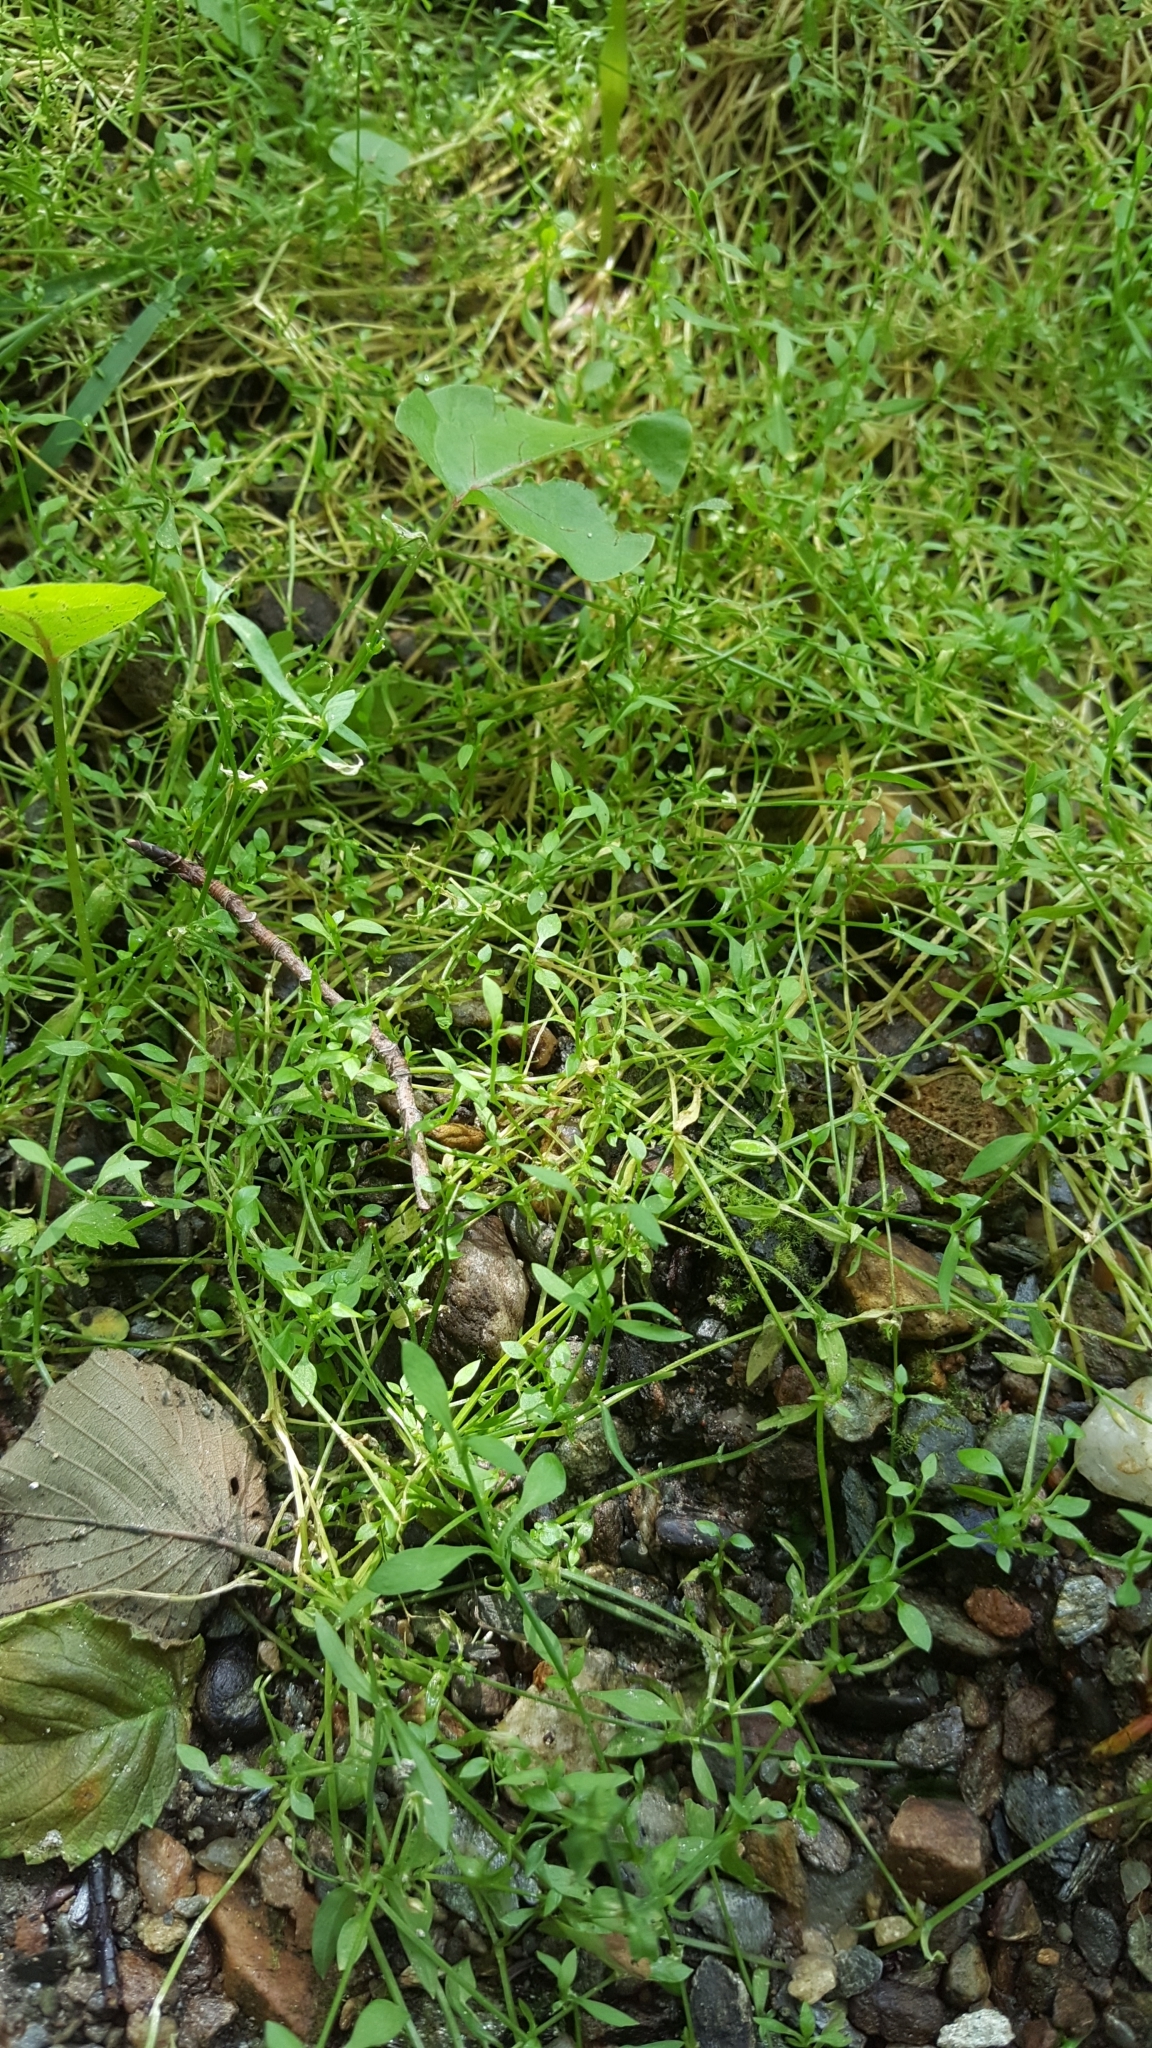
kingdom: Plantae
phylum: Tracheophyta
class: Magnoliopsida
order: Caryophyllales
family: Caryophyllaceae
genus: Stellaria
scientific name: Stellaria alsine
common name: Bog stitchwort
